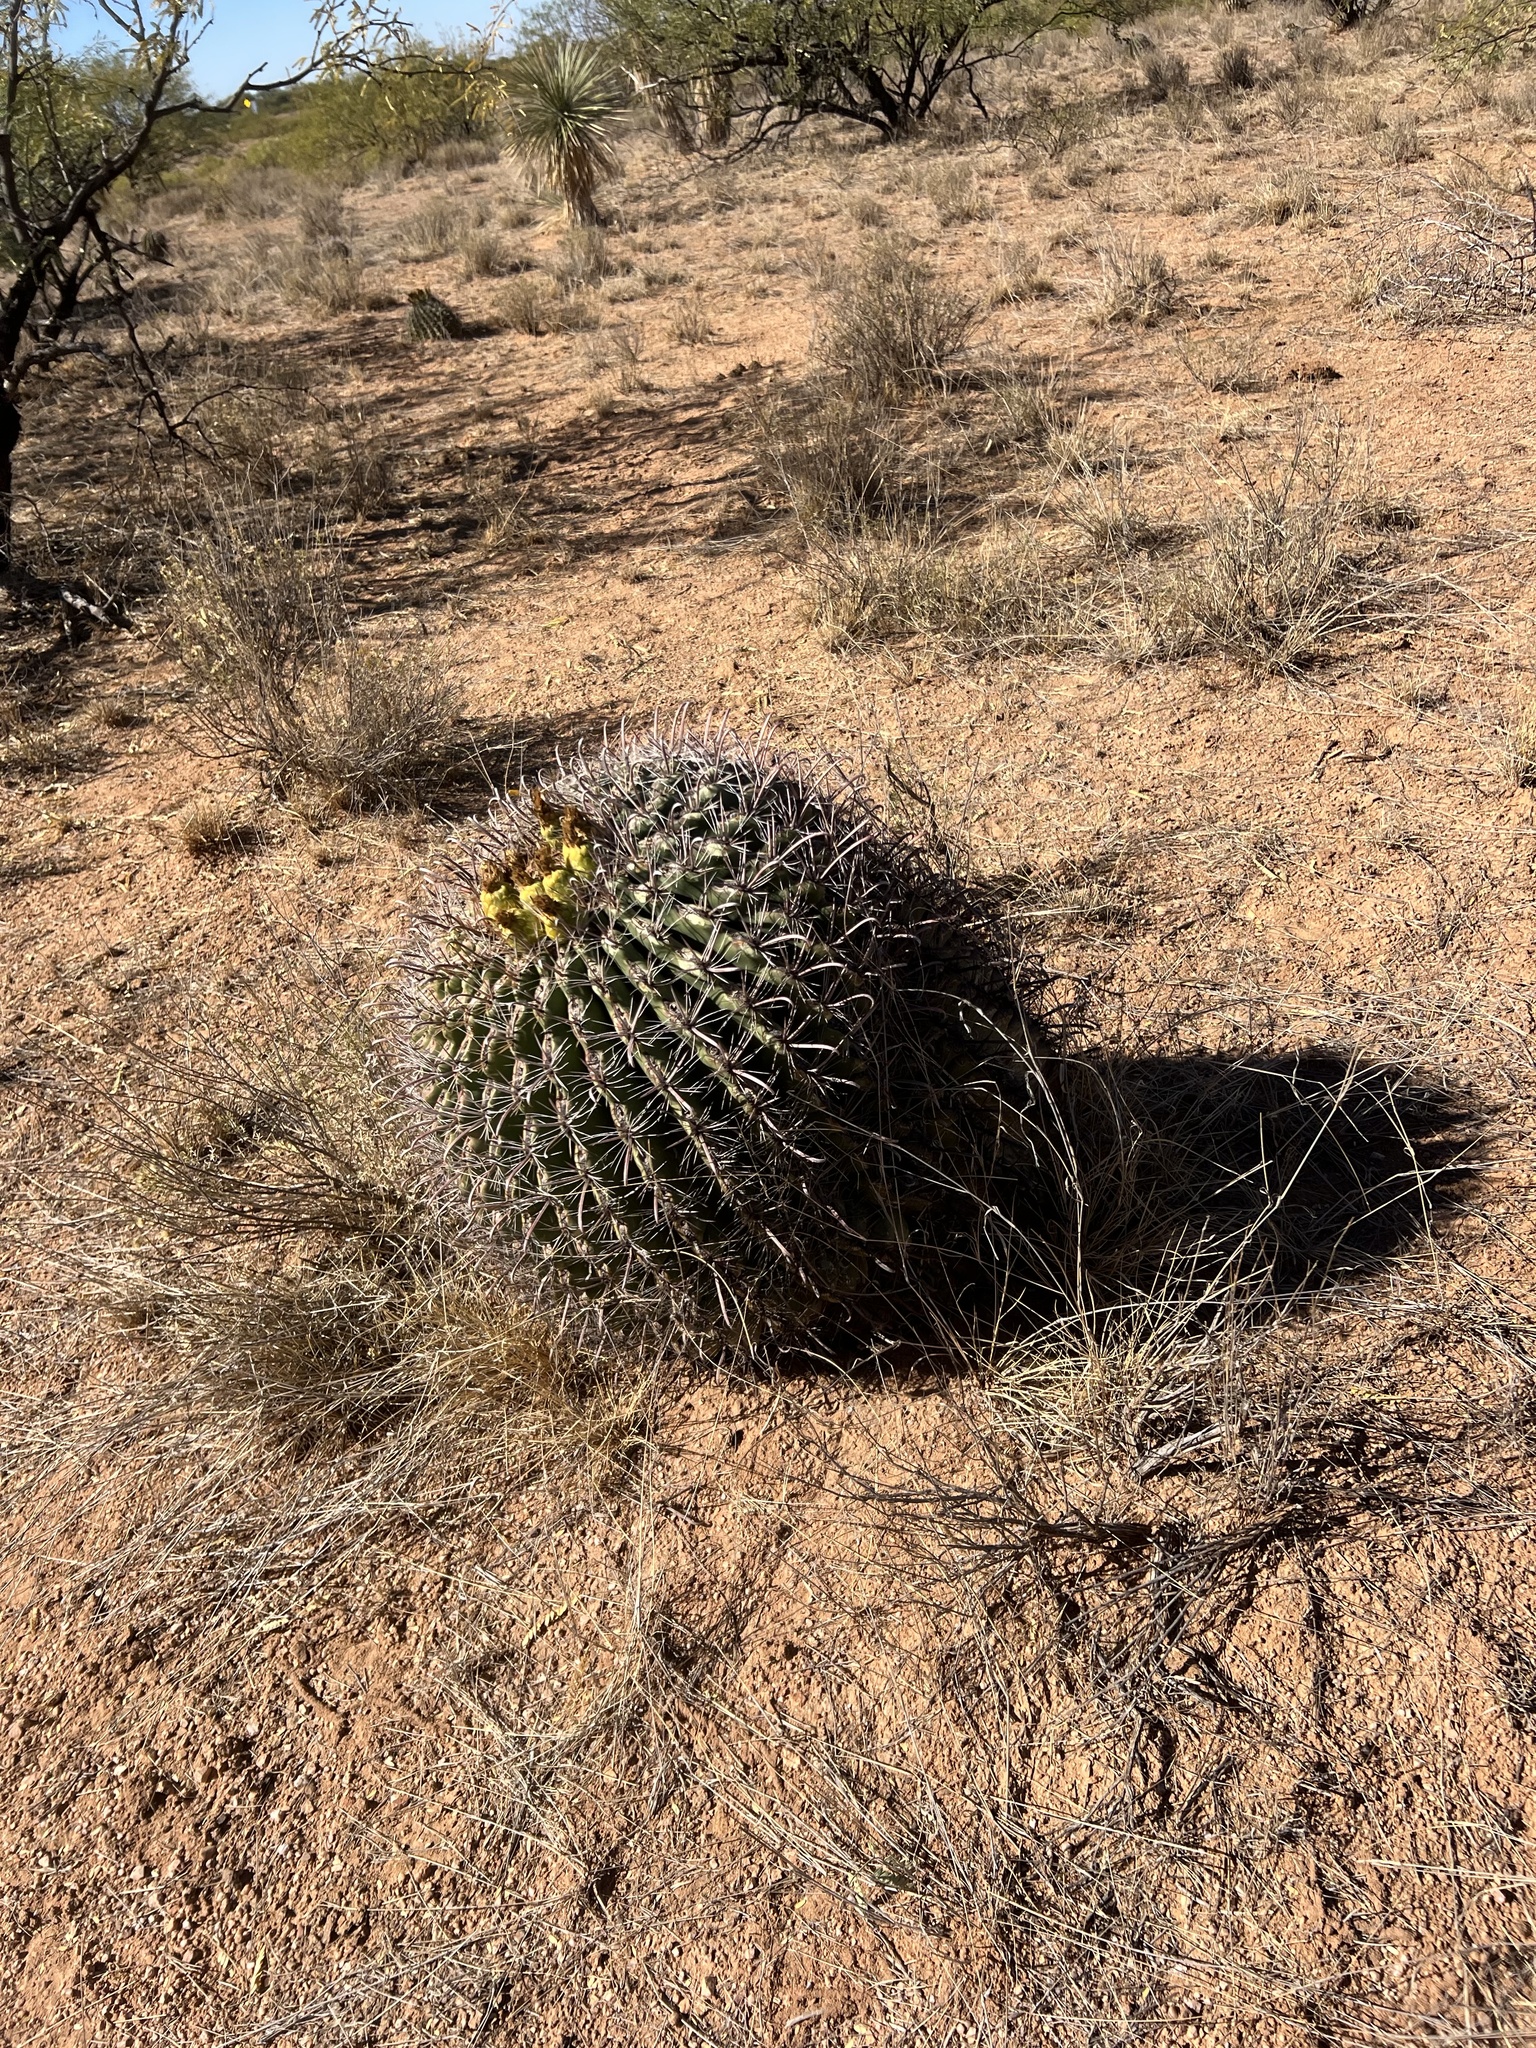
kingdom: Plantae
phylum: Tracheophyta
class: Magnoliopsida
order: Caryophyllales
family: Cactaceae
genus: Ferocactus
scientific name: Ferocactus wislizeni
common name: Candy barrel cactus
